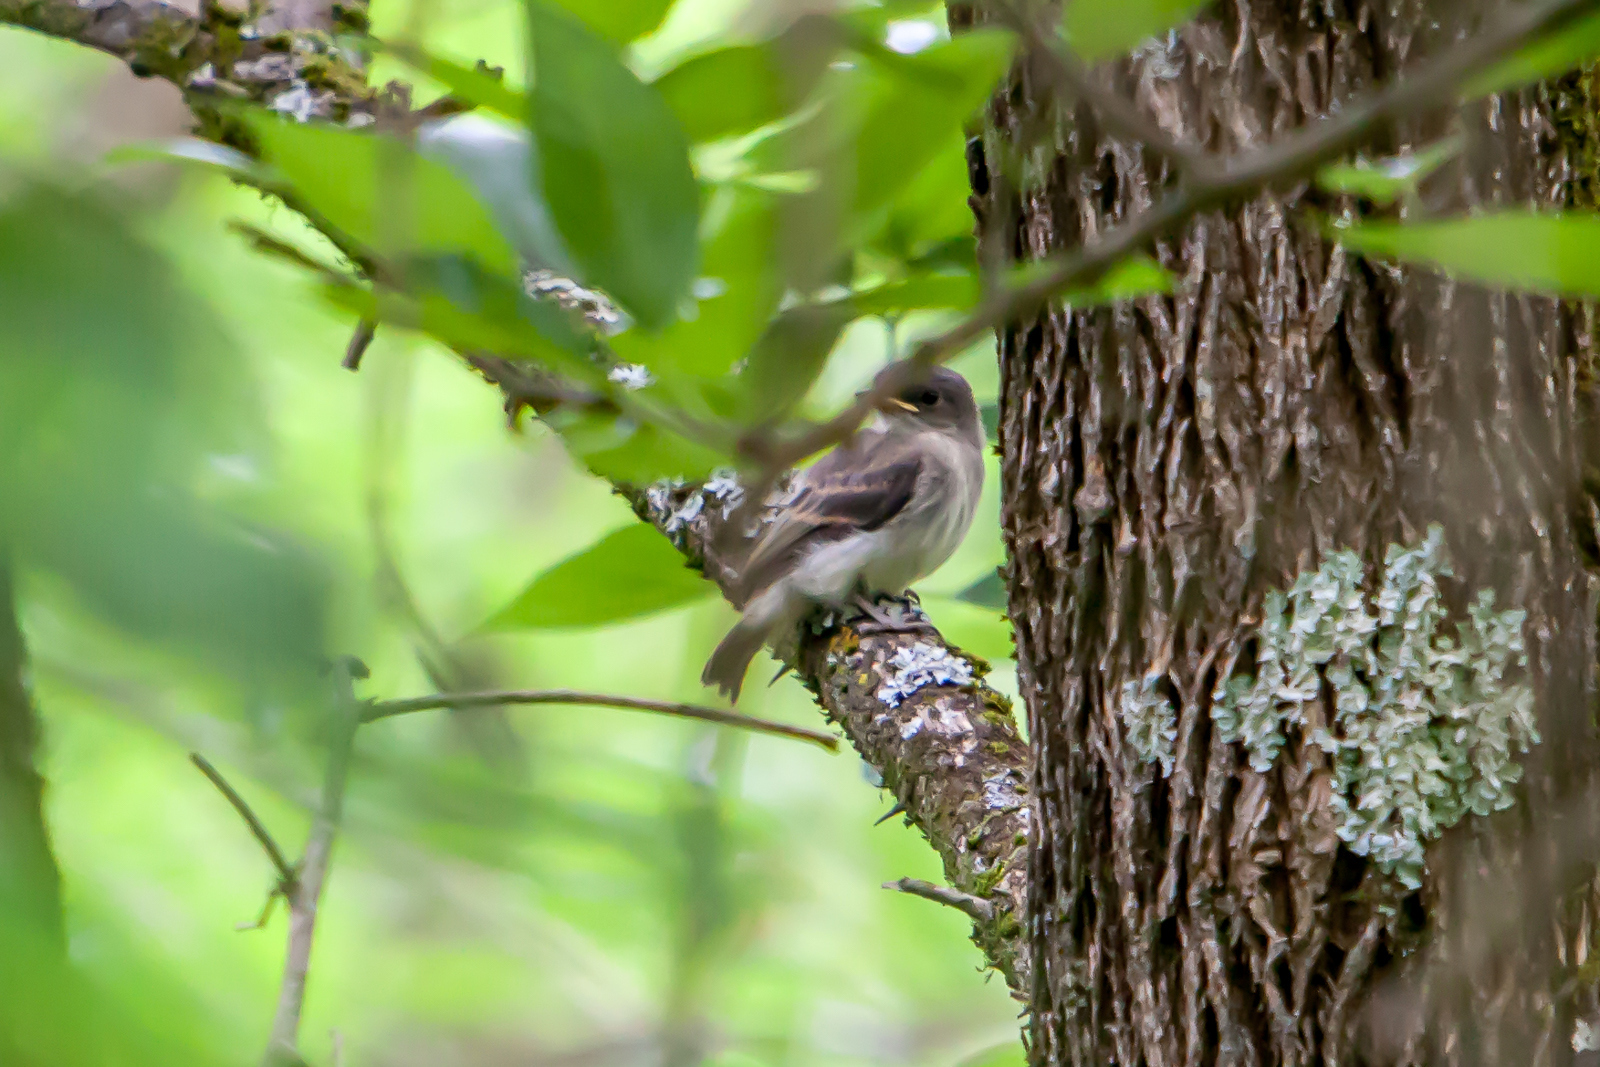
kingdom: Animalia
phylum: Chordata
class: Aves
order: Passeriformes
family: Tyrannidae
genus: Contopus
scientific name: Contopus virens
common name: Eastern wood-pewee
